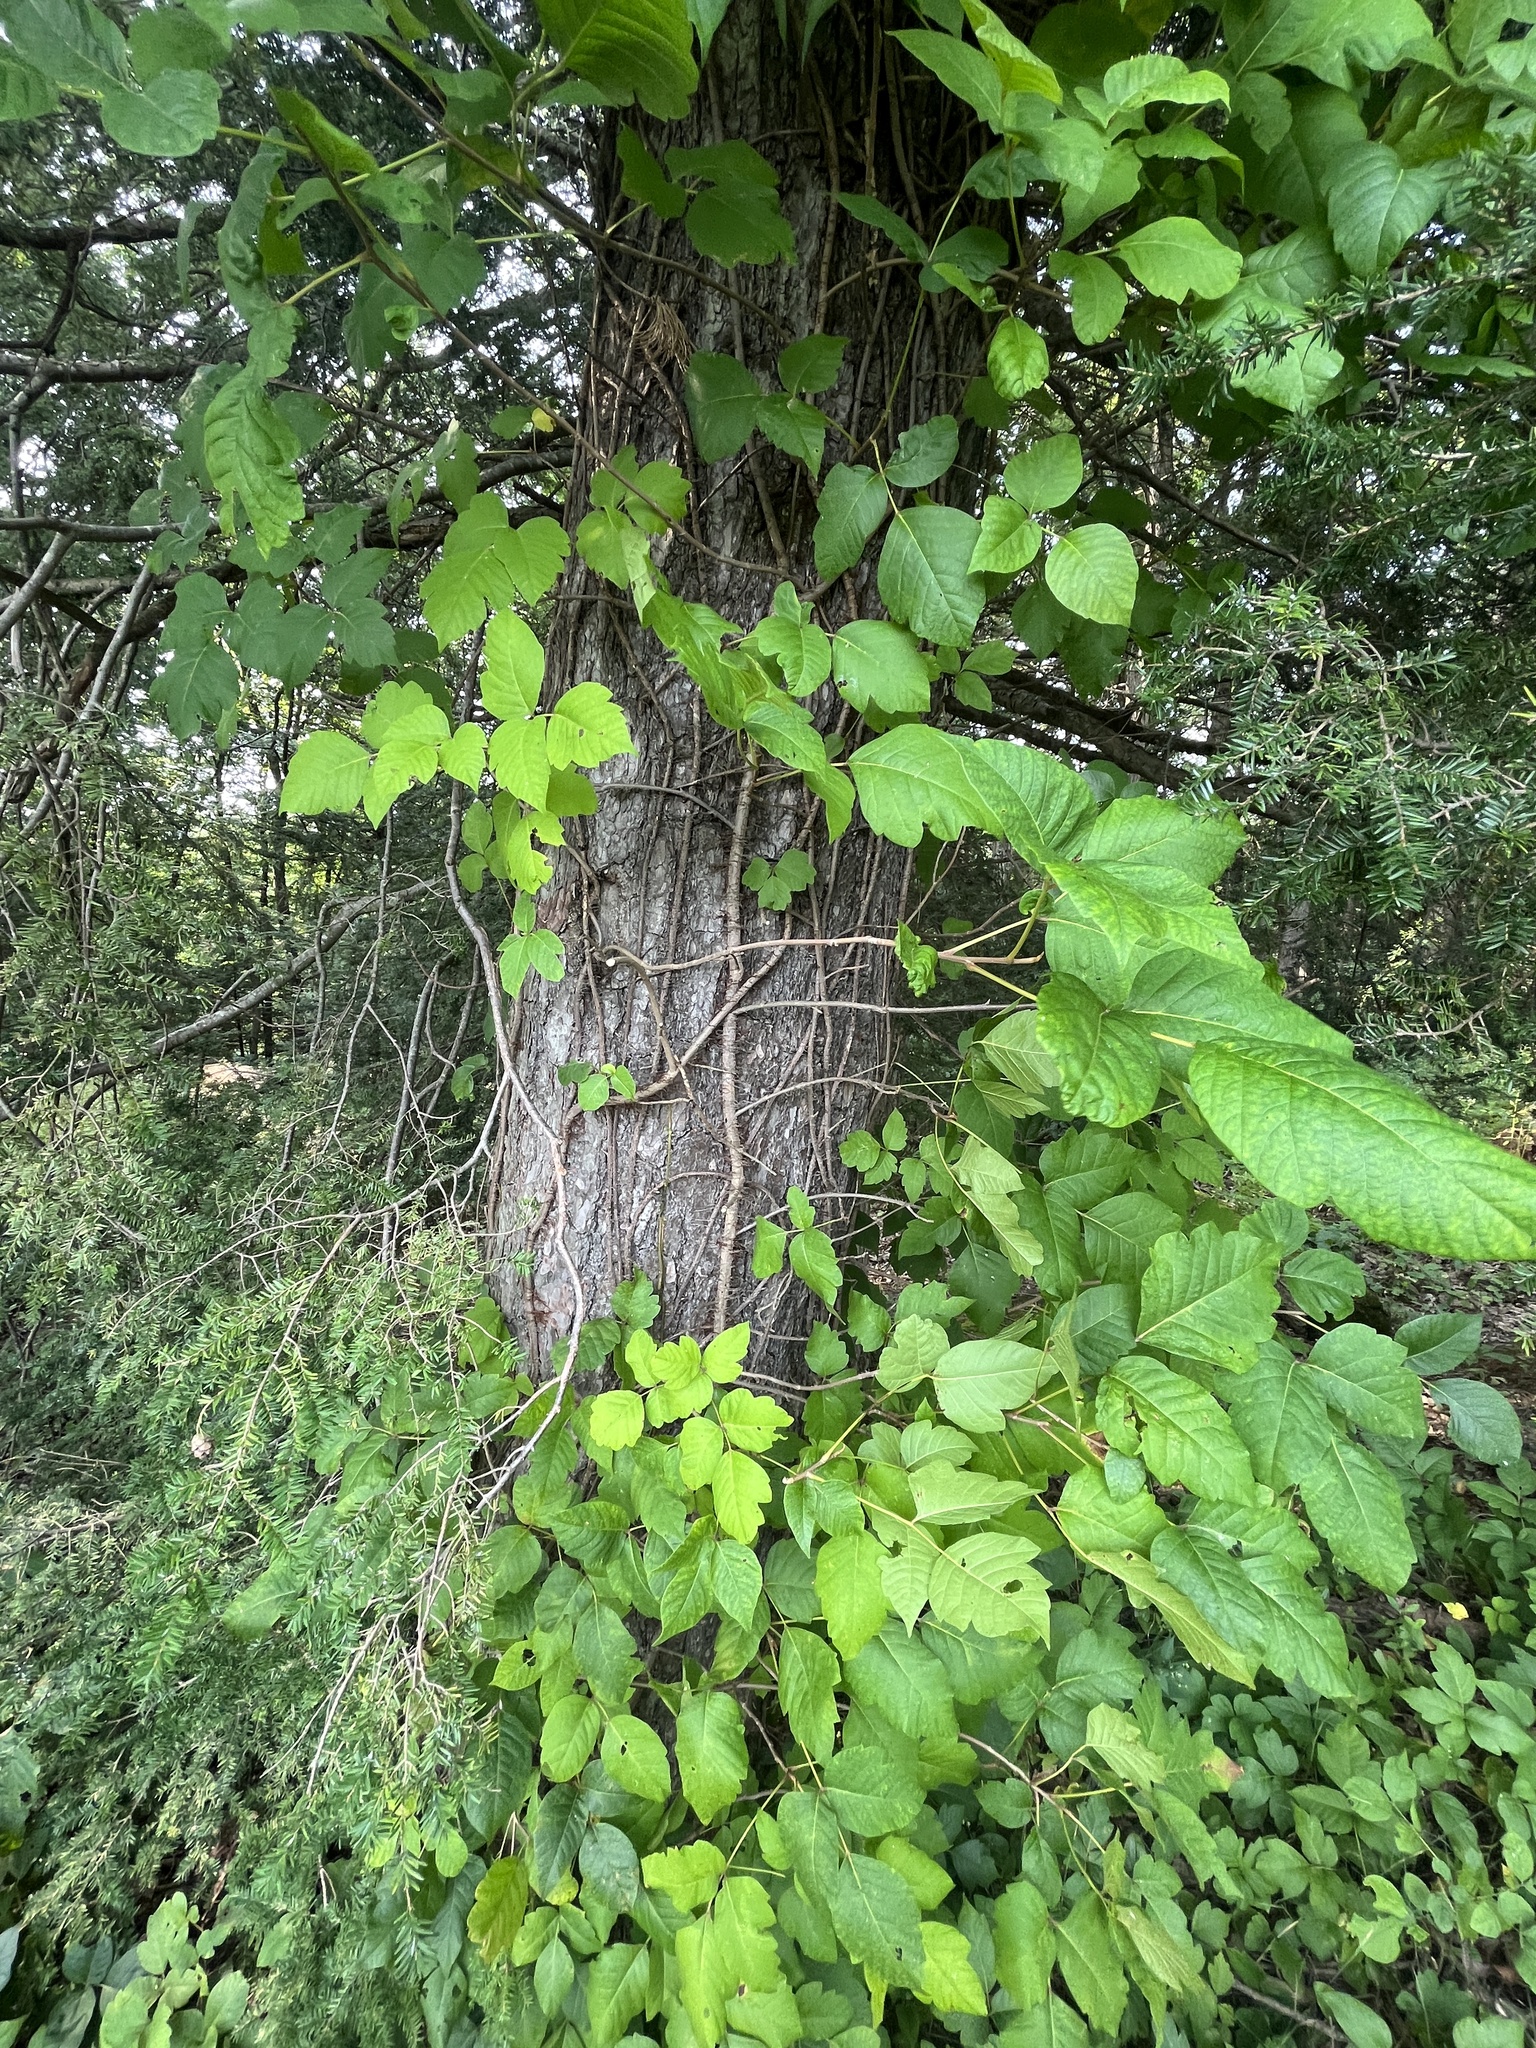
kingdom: Plantae
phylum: Tracheophyta
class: Magnoliopsida
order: Sapindales
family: Anacardiaceae
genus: Toxicodendron
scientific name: Toxicodendron radicans
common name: Poison ivy
